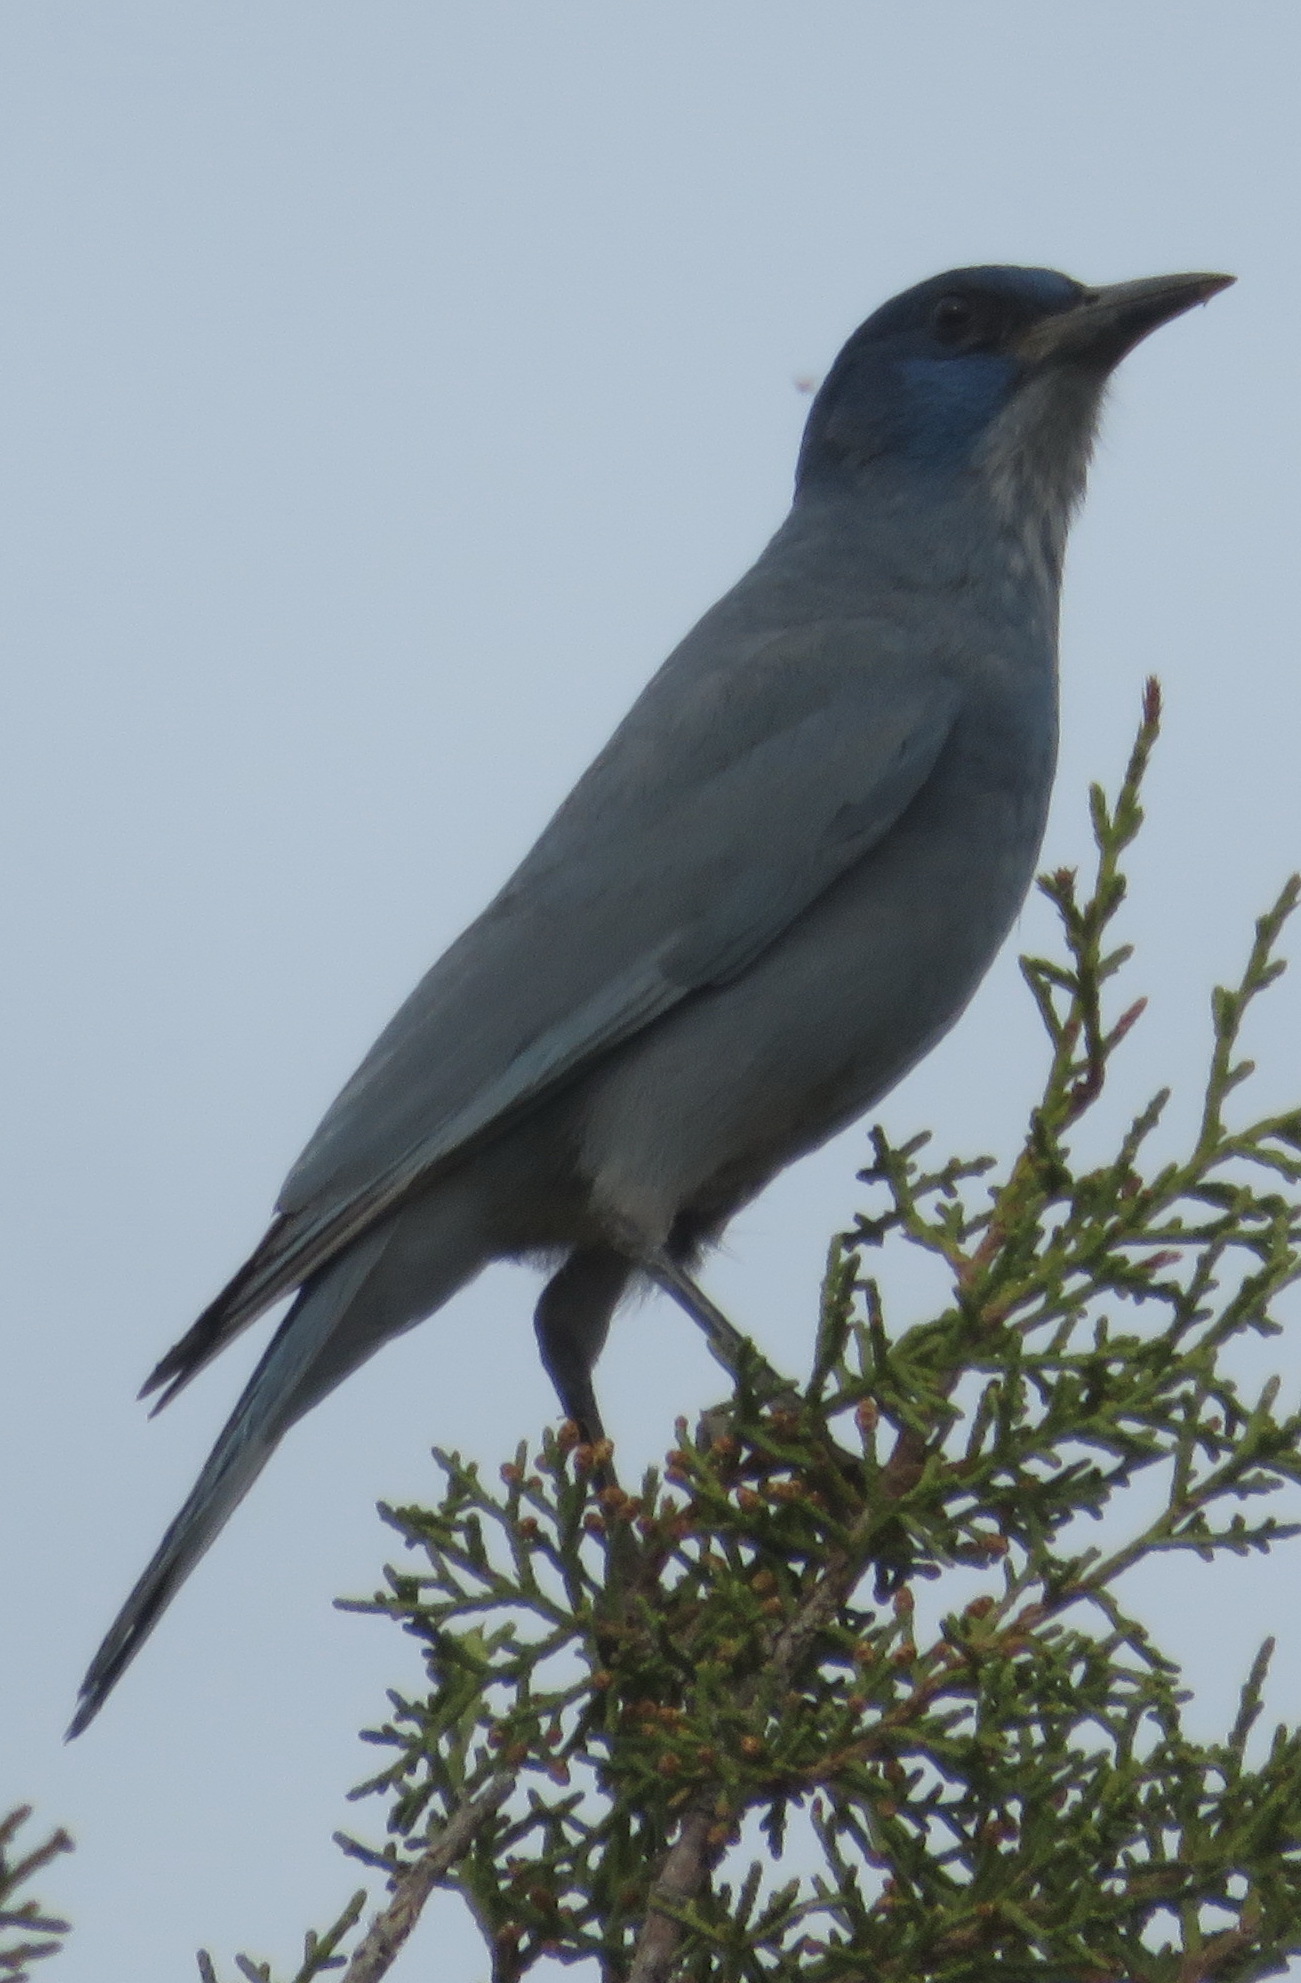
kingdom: Animalia
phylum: Chordata
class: Aves
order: Passeriformes
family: Corvidae
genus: Gymnorhinus
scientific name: Gymnorhinus cyanocephalus
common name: Pinyon jay
